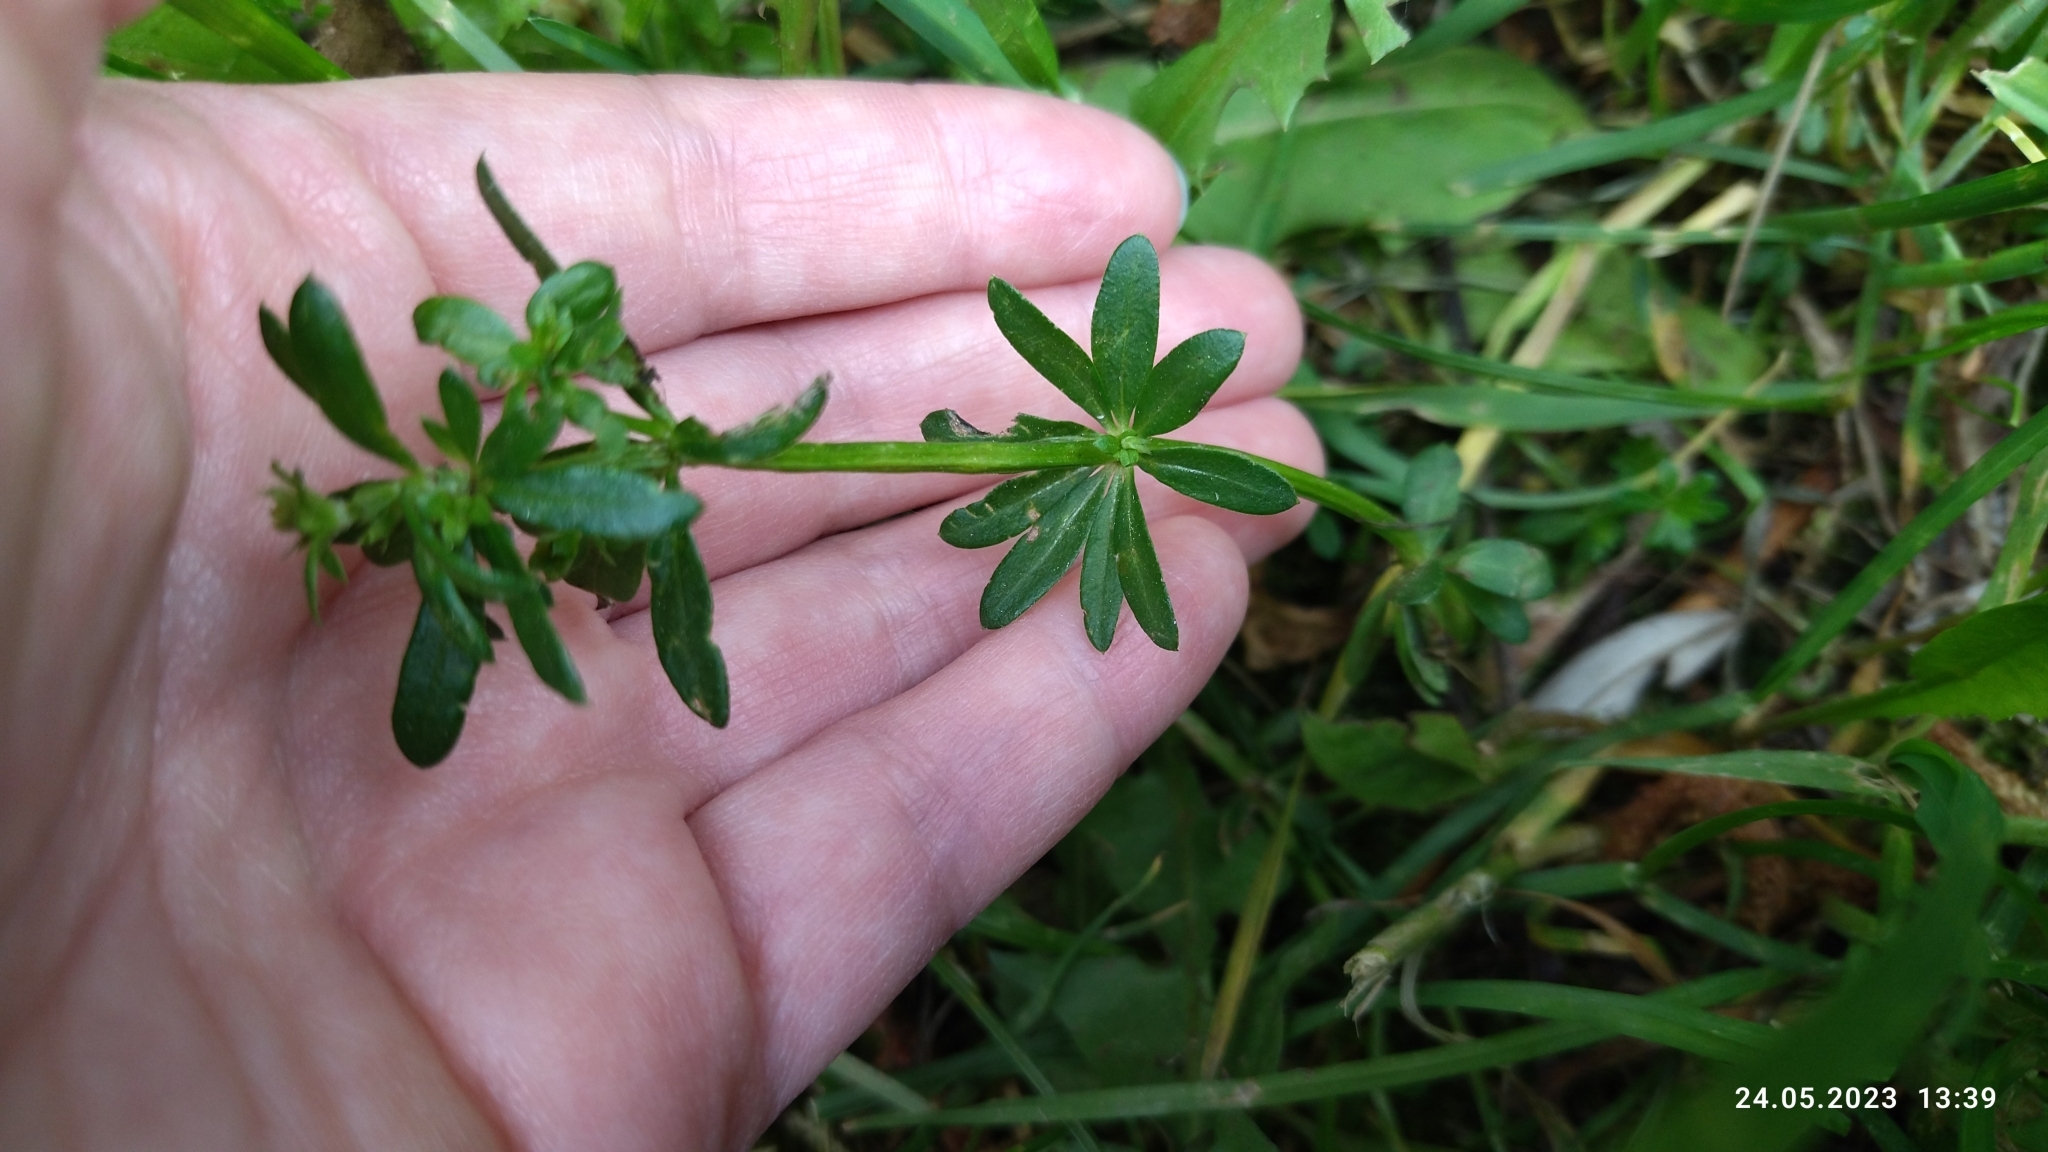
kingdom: Plantae
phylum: Tracheophyta
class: Magnoliopsida
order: Gentianales
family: Rubiaceae
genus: Galium
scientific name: Galium mollugo
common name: Hedge bedstraw
